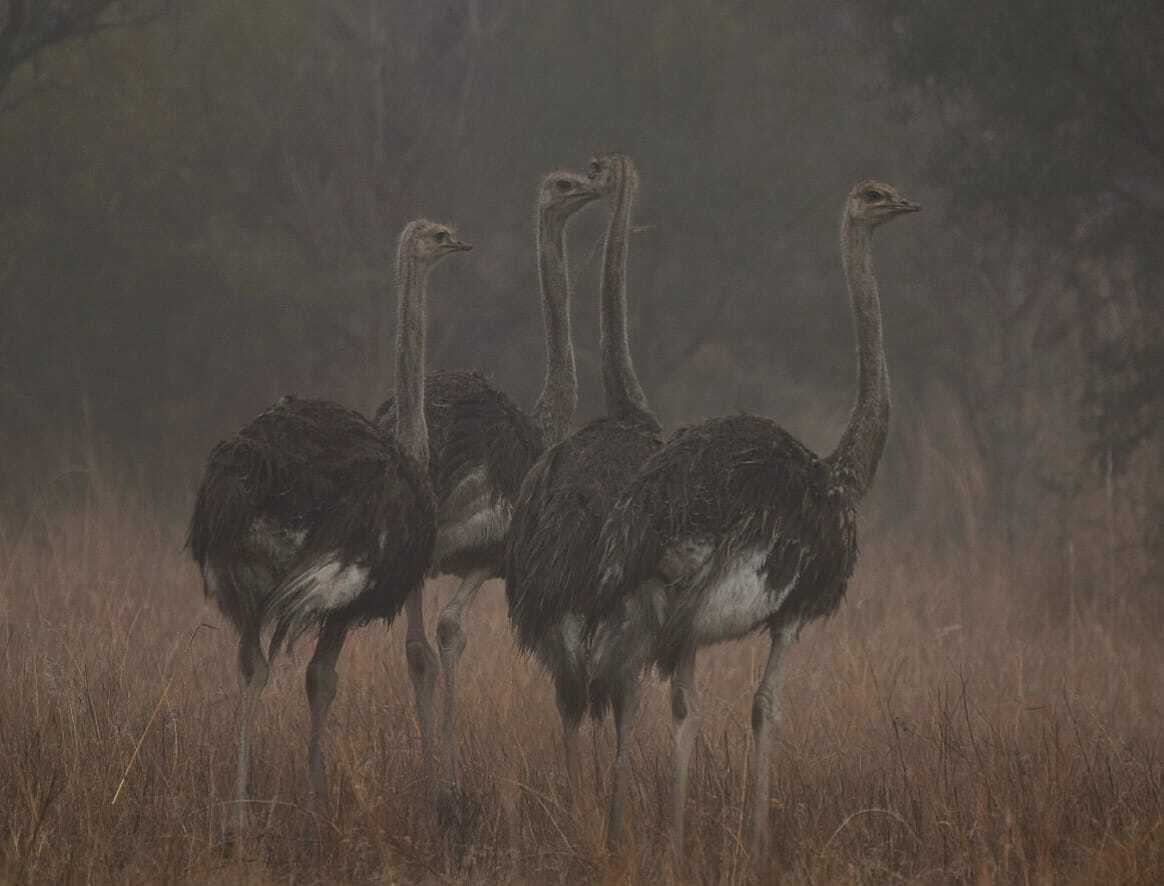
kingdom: Animalia
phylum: Chordata
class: Aves
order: Struthioniformes
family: Struthionidae
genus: Struthio
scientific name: Struthio camelus
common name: Common ostrich
